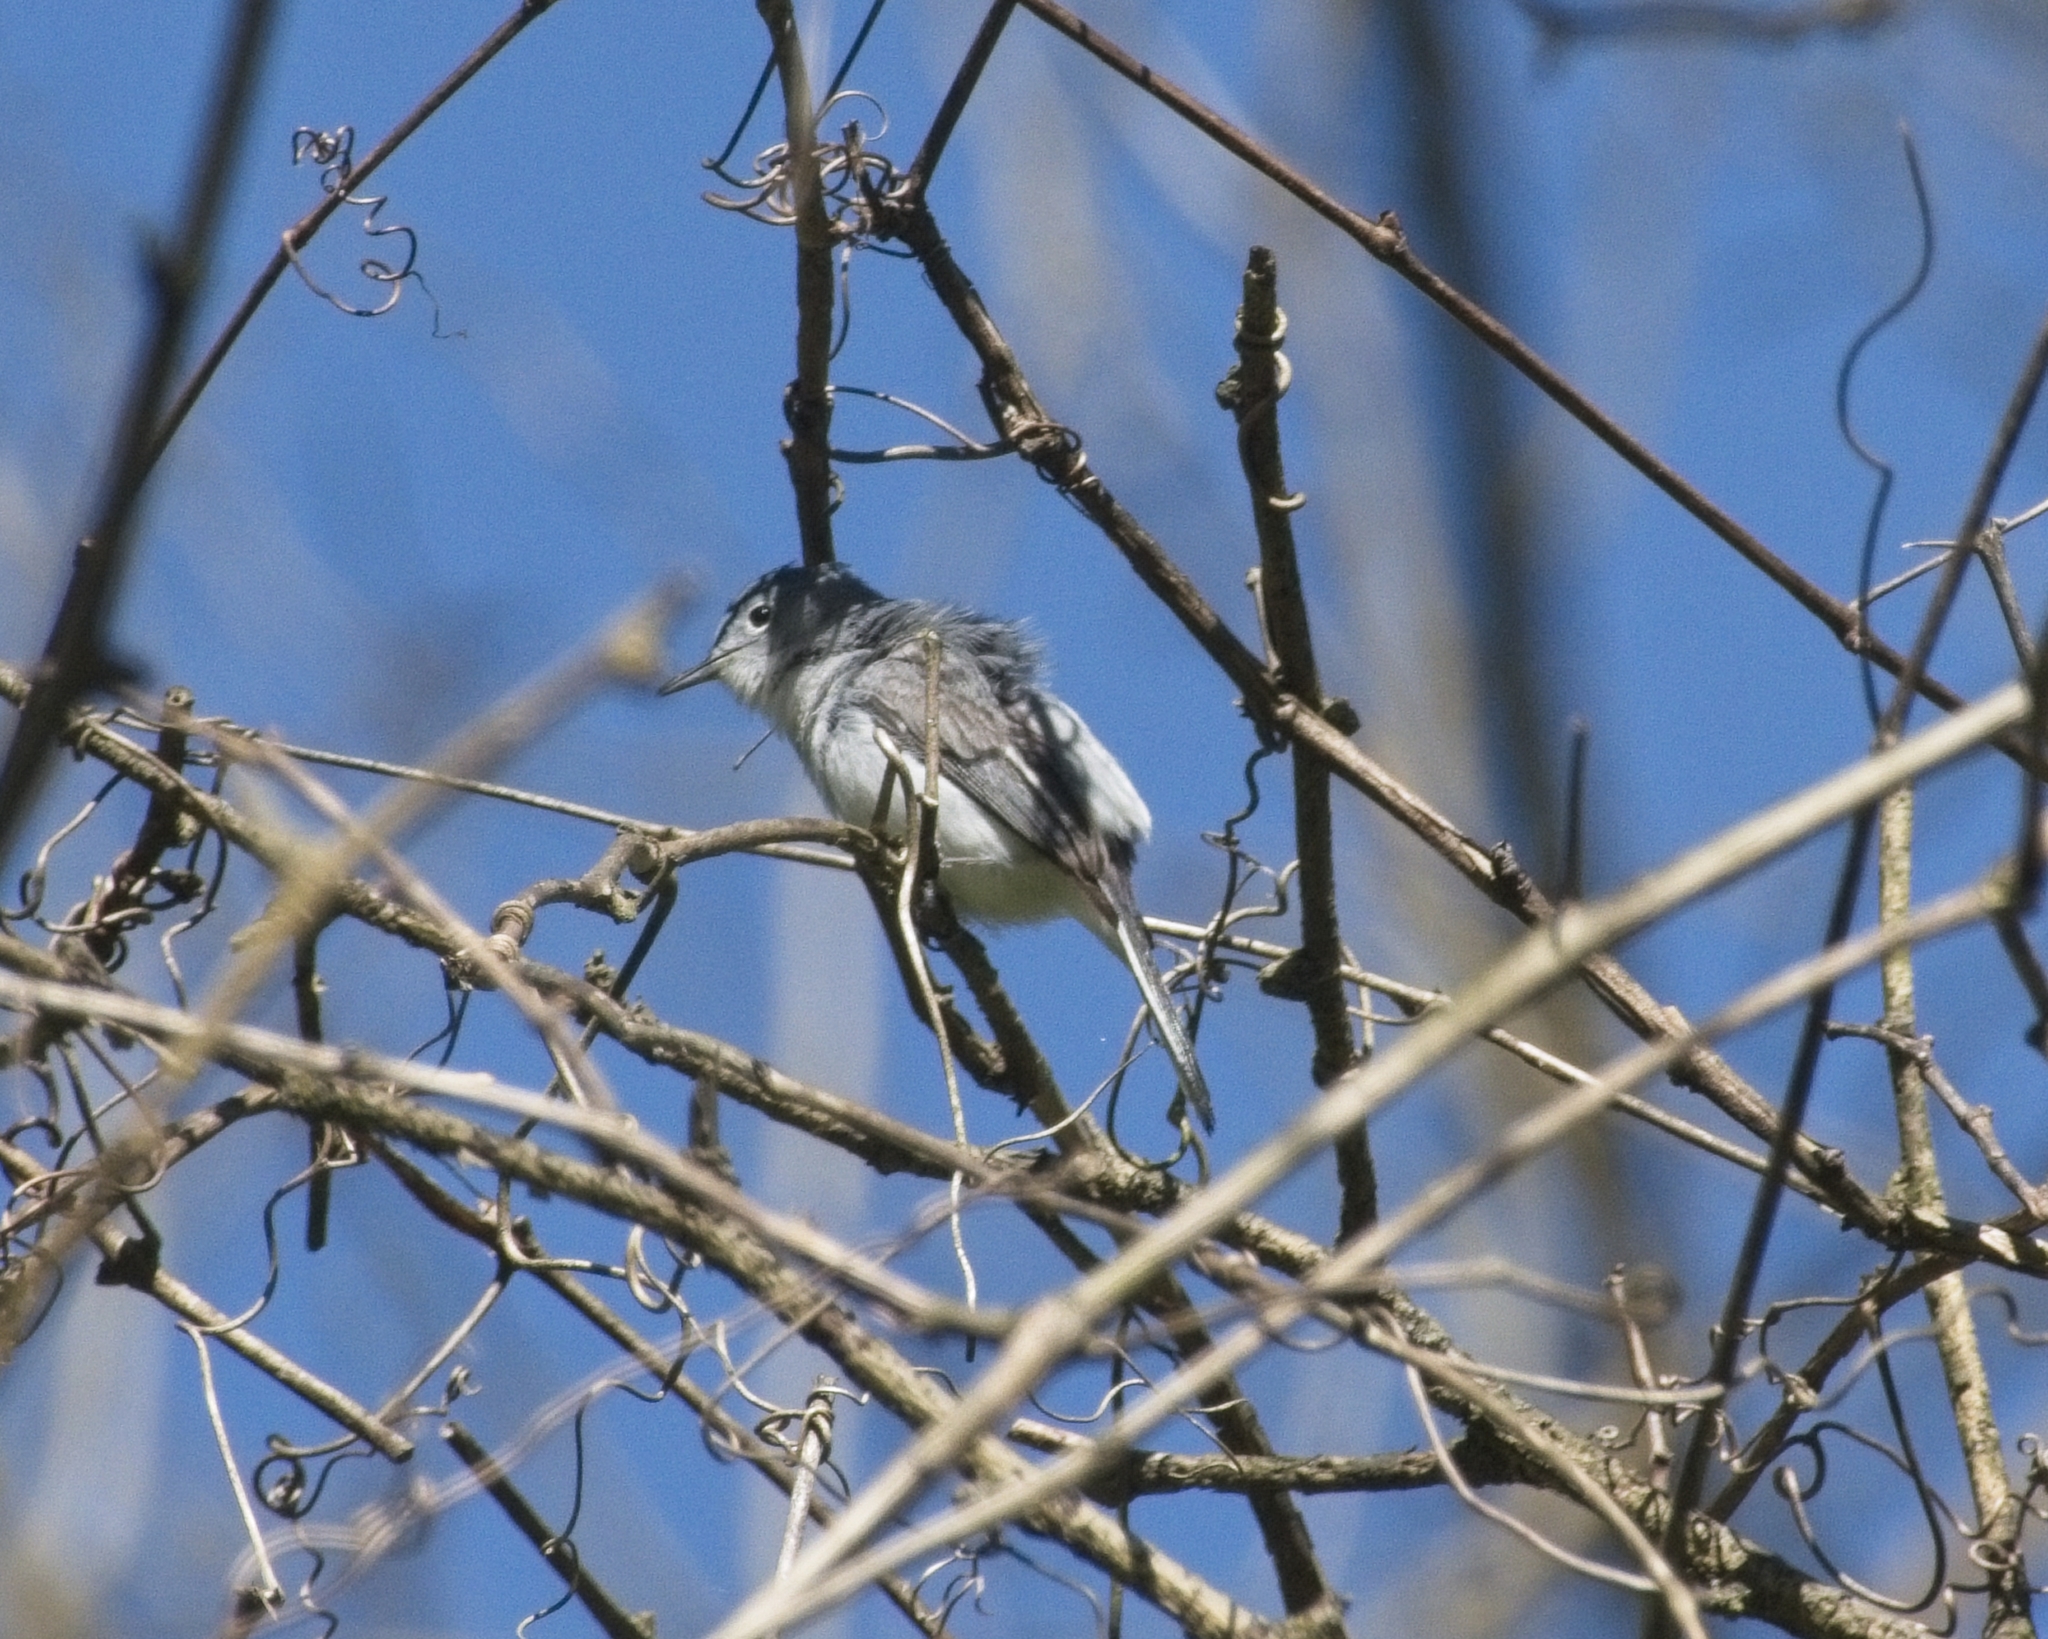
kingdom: Animalia
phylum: Chordata
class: Aves
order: Passeriformes
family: Polioptilidae
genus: Polioptila
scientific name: Polioptila caerulea
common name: Blue-gray gnatcatcher
